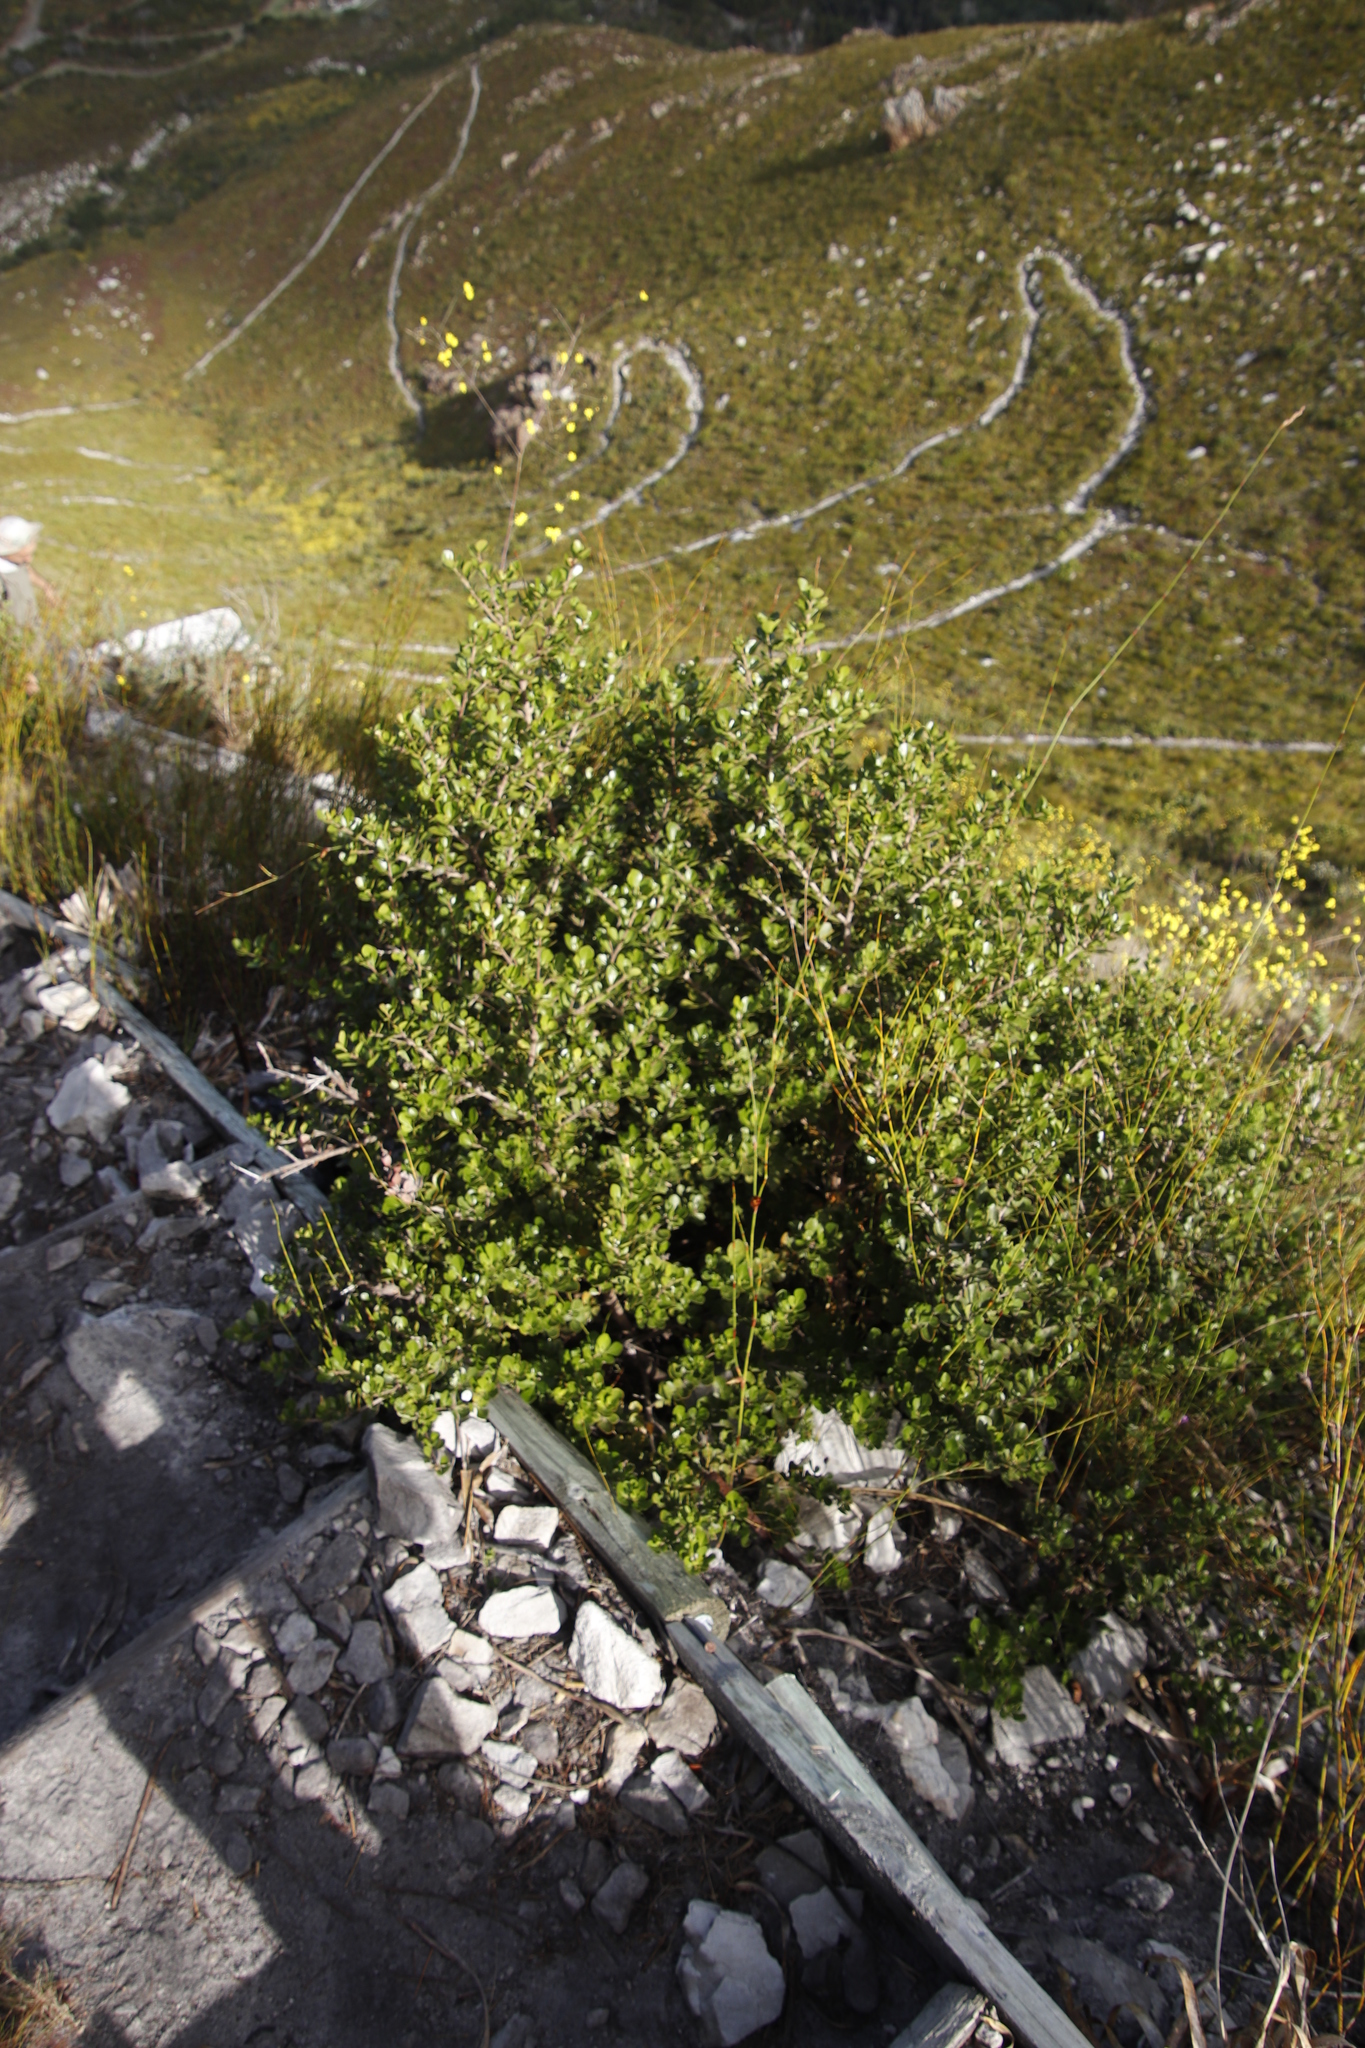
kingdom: Plantae
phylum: Tracheophyta
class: Magnoliopsida
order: Sapindales
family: Anacardiaceae
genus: Searsia
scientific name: Searsia lucida
